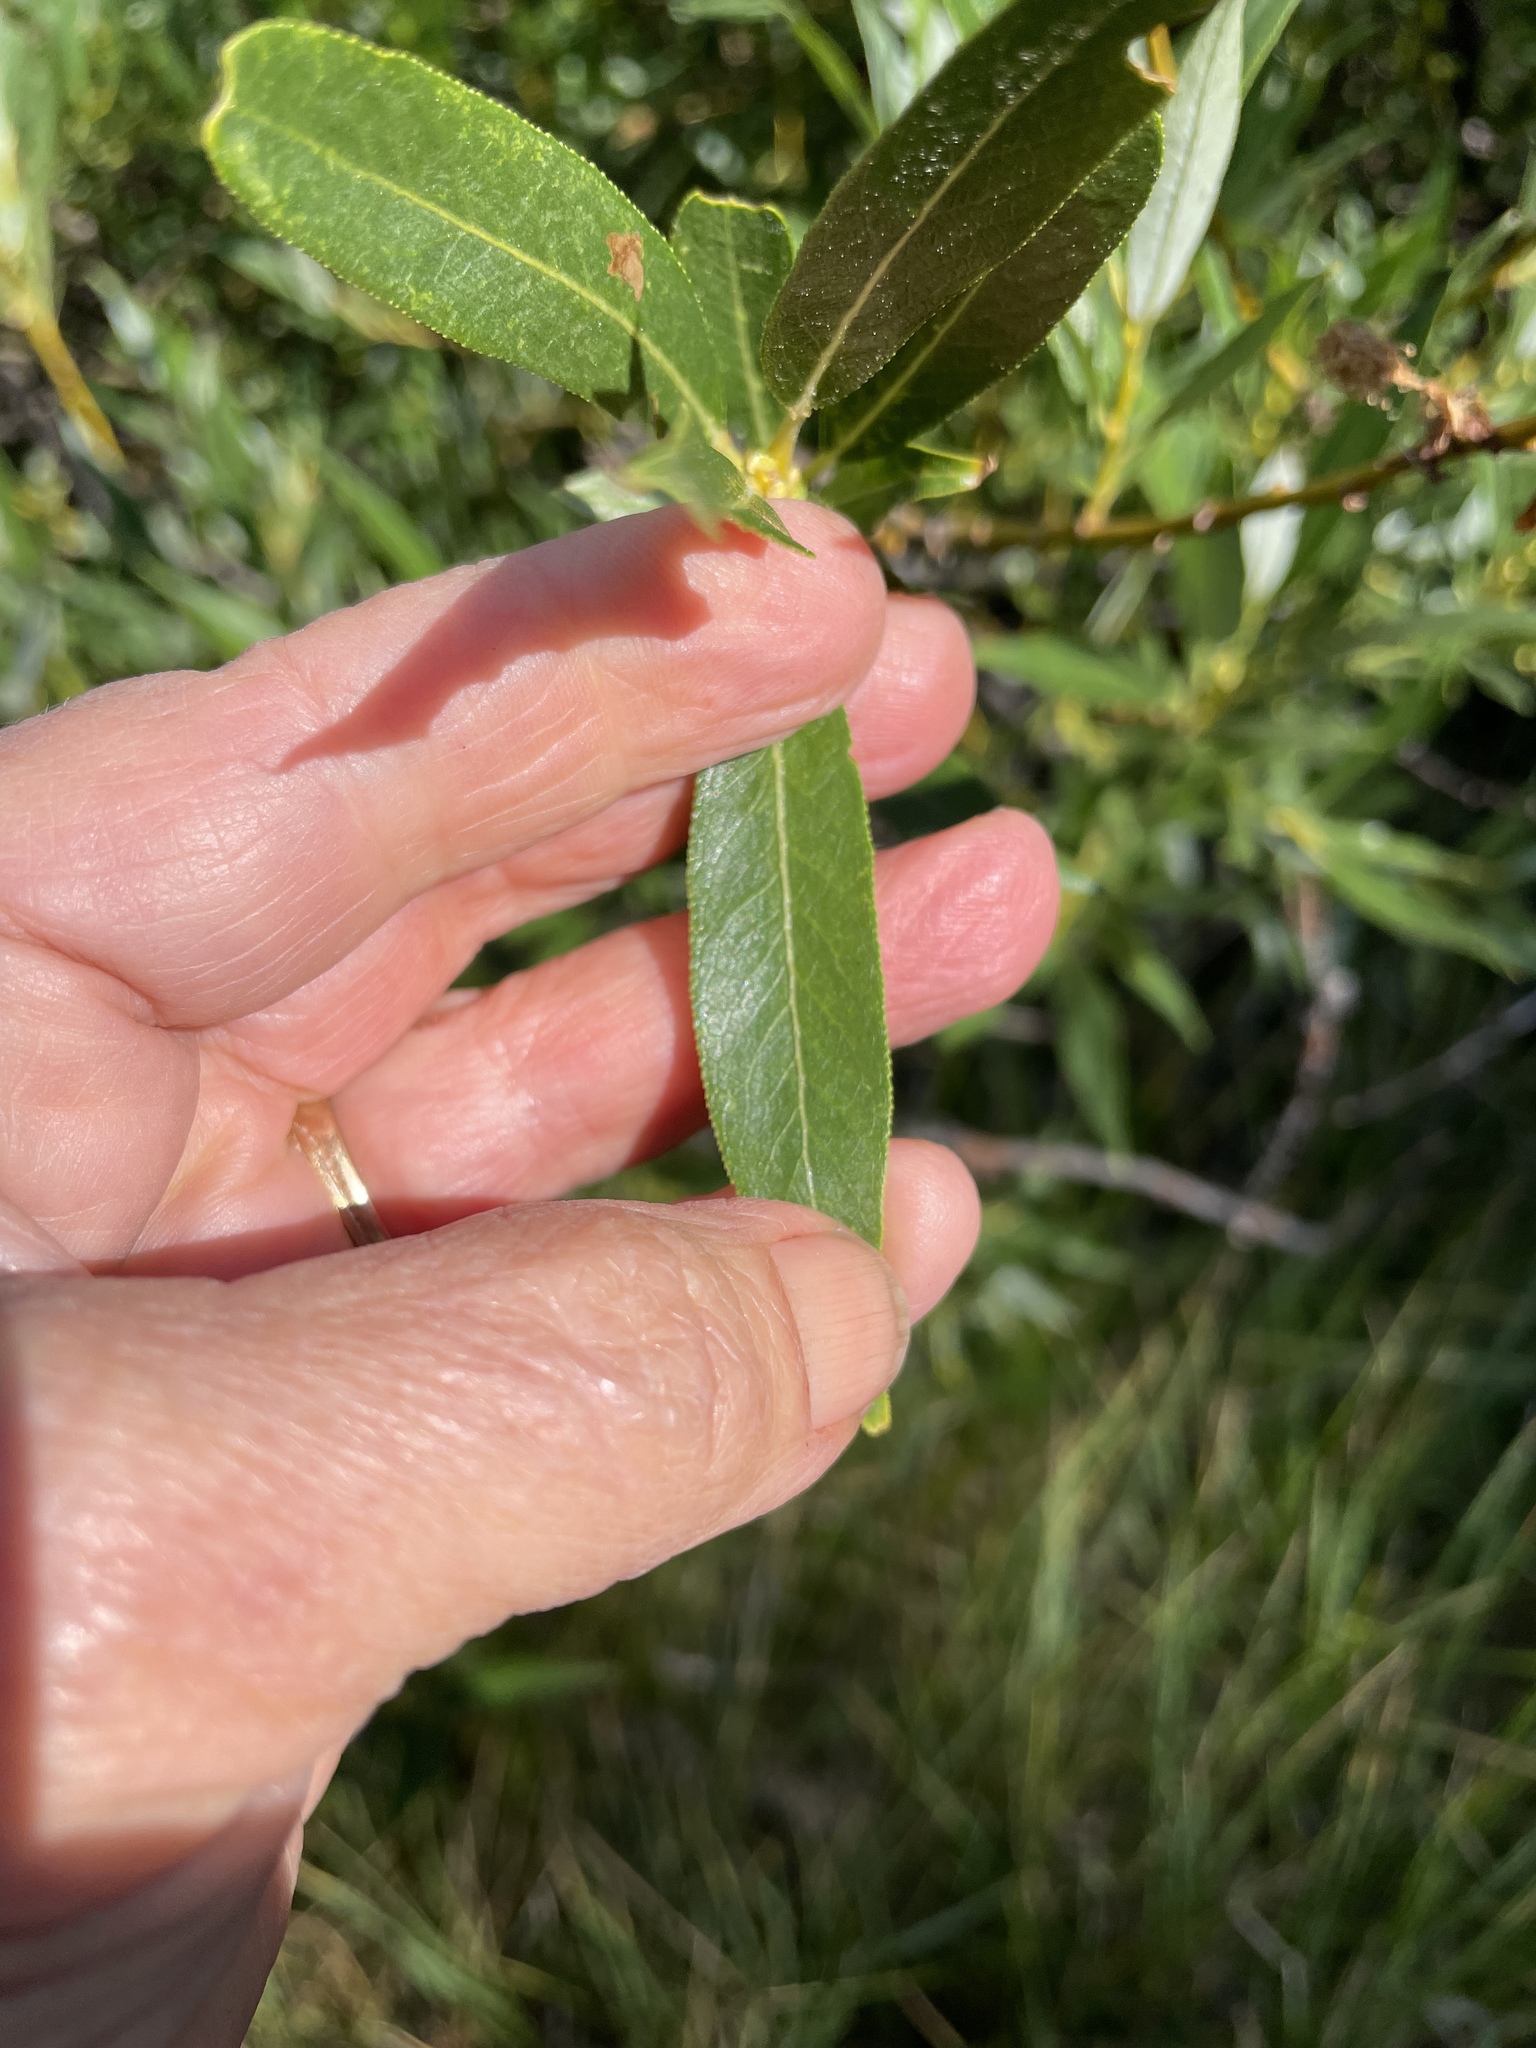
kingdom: Plantae
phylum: Tracheophyta
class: Magnoliopsida
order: Malpighiales
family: Salicaceae
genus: Salix
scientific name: Salix lucida
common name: Shining willow
